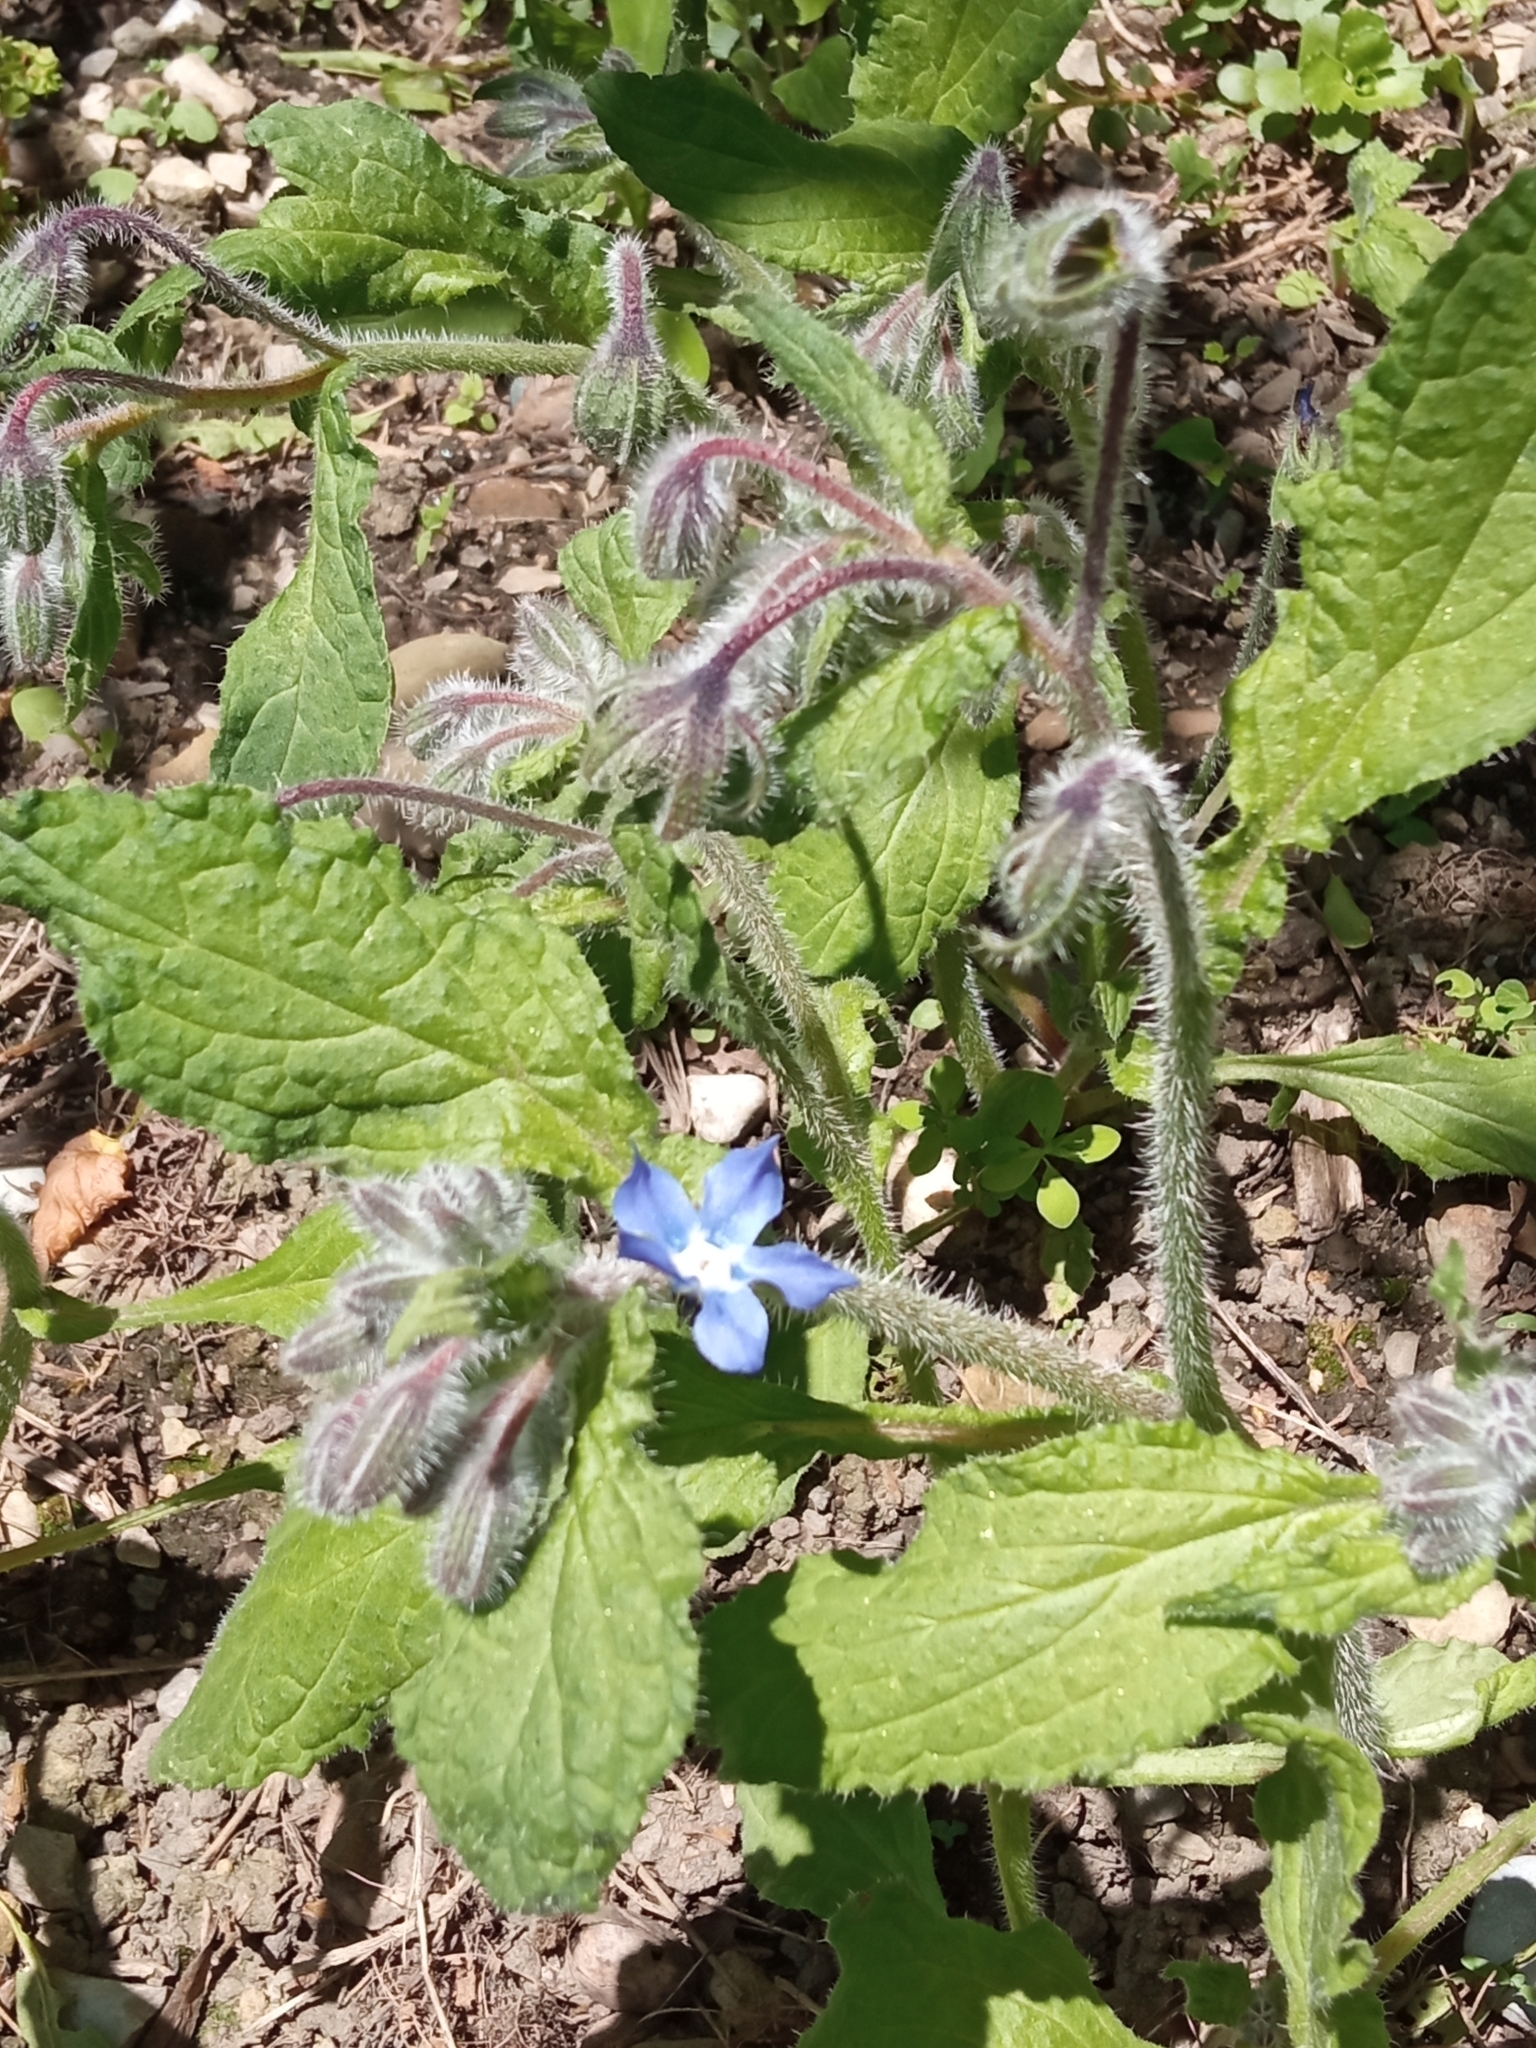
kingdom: Plantae
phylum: Tracheophyta
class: Magnoliopsida
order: Boraginales
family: Boraginaceae
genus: Borago
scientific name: Borago officinalis
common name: Borage
